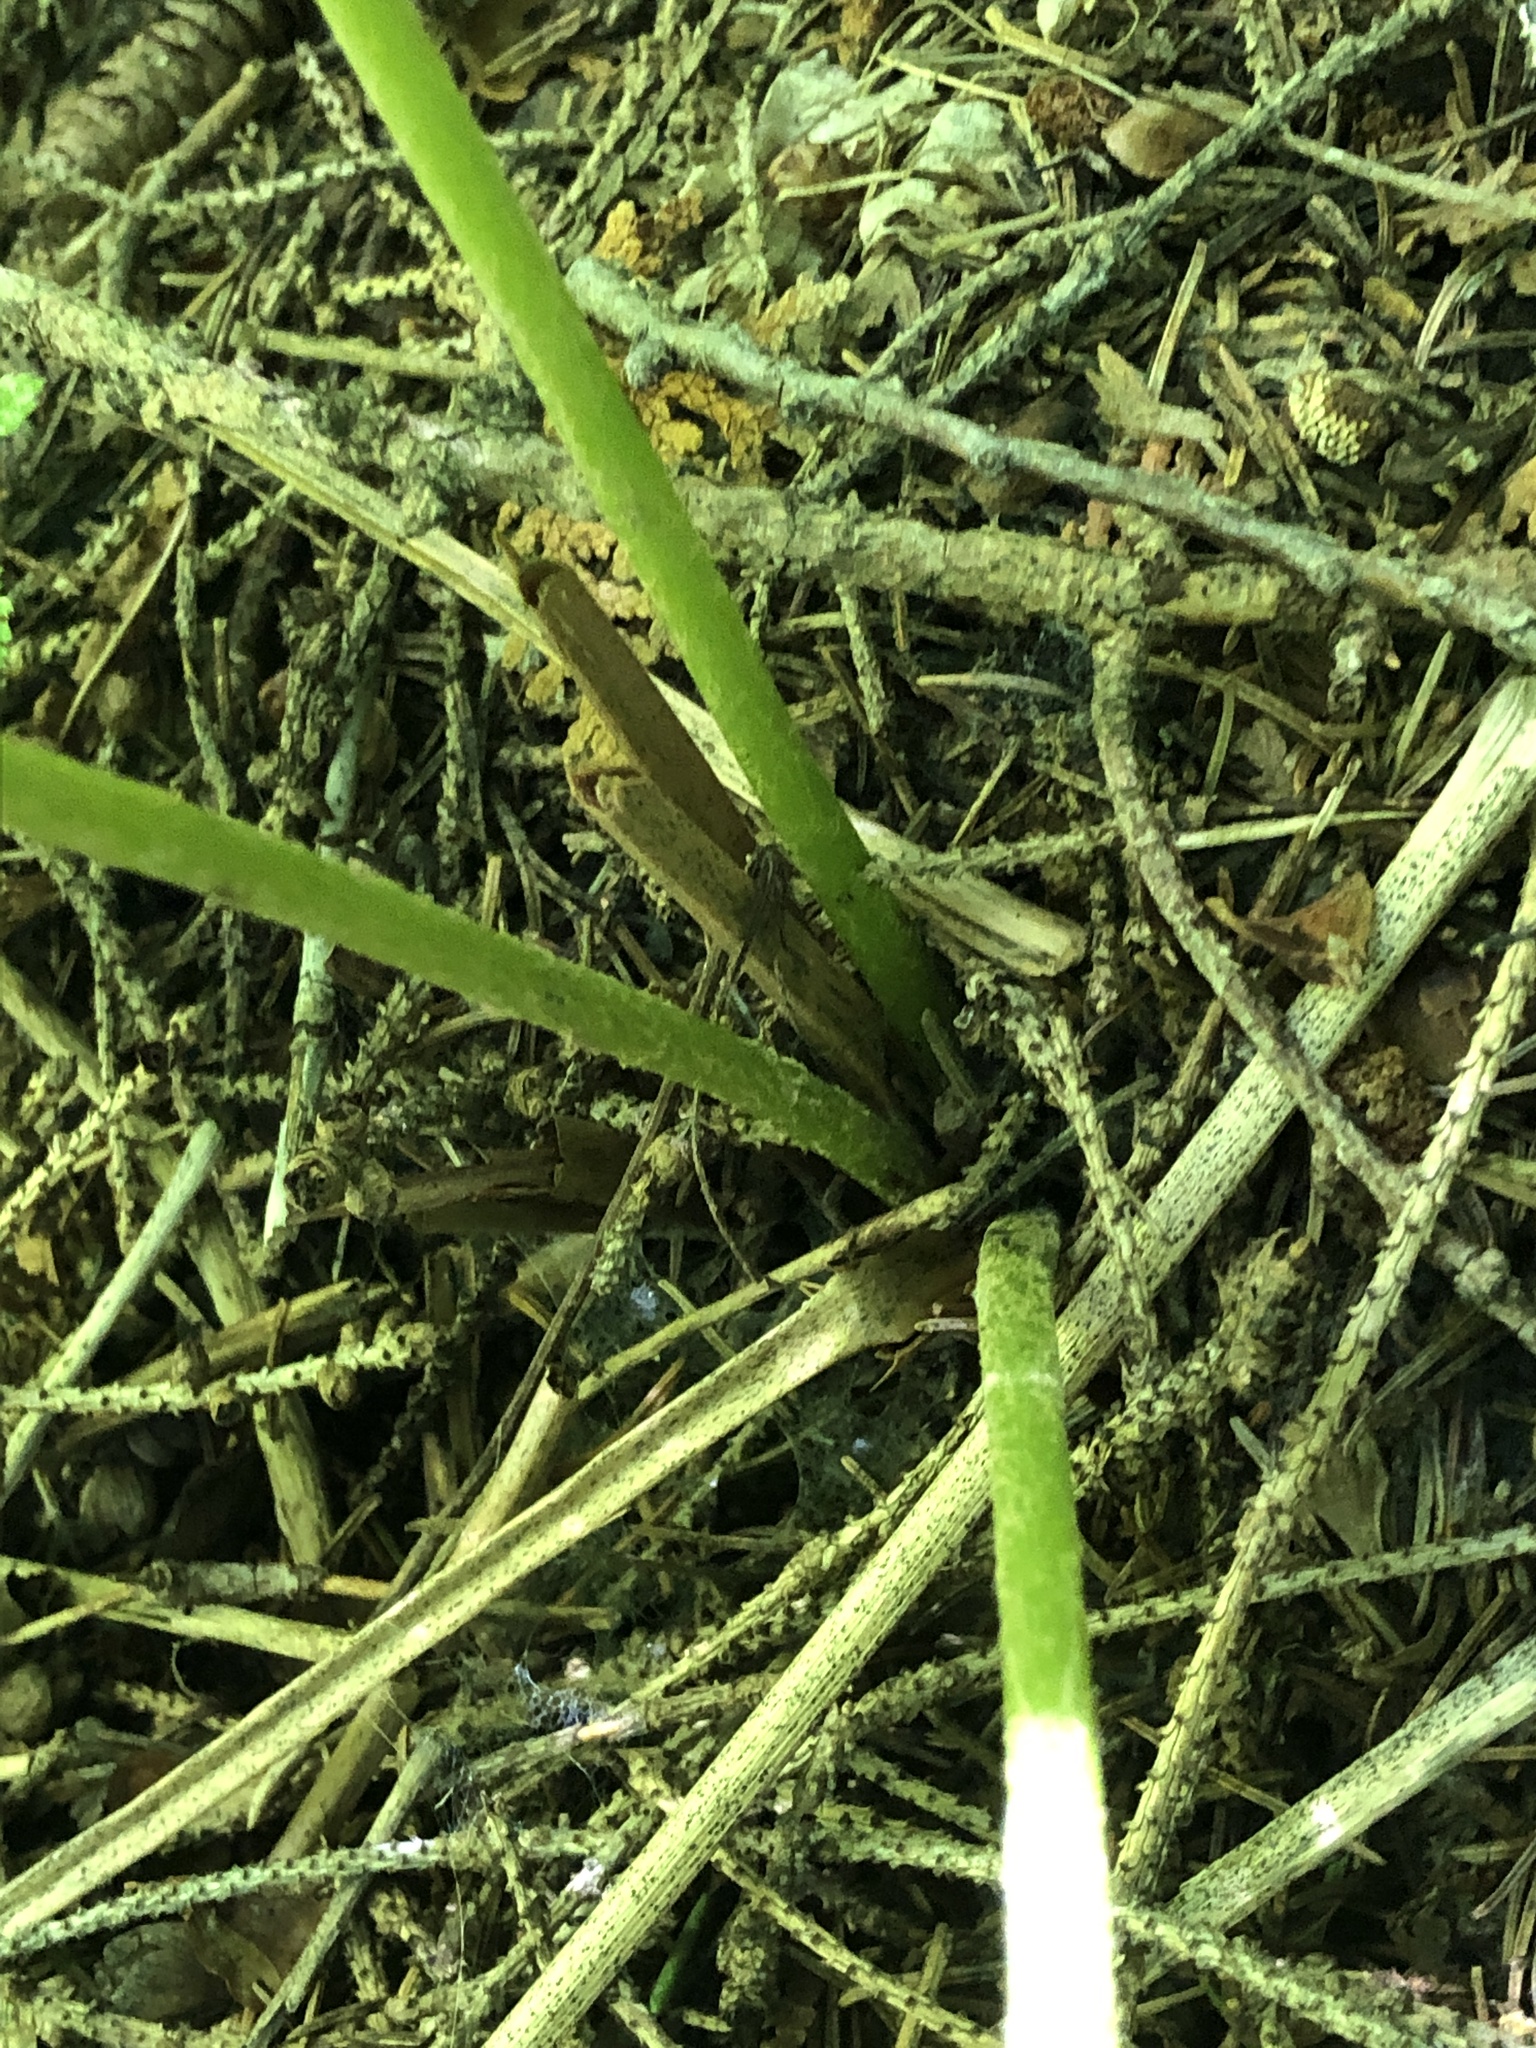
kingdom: Plantae
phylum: Tracheophyta
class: Polypodiopsida
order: Osmundales
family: Osmundaceae
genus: Osmundastrum
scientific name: Osmundastrum cinnamomeum
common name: Cinnamon fern
